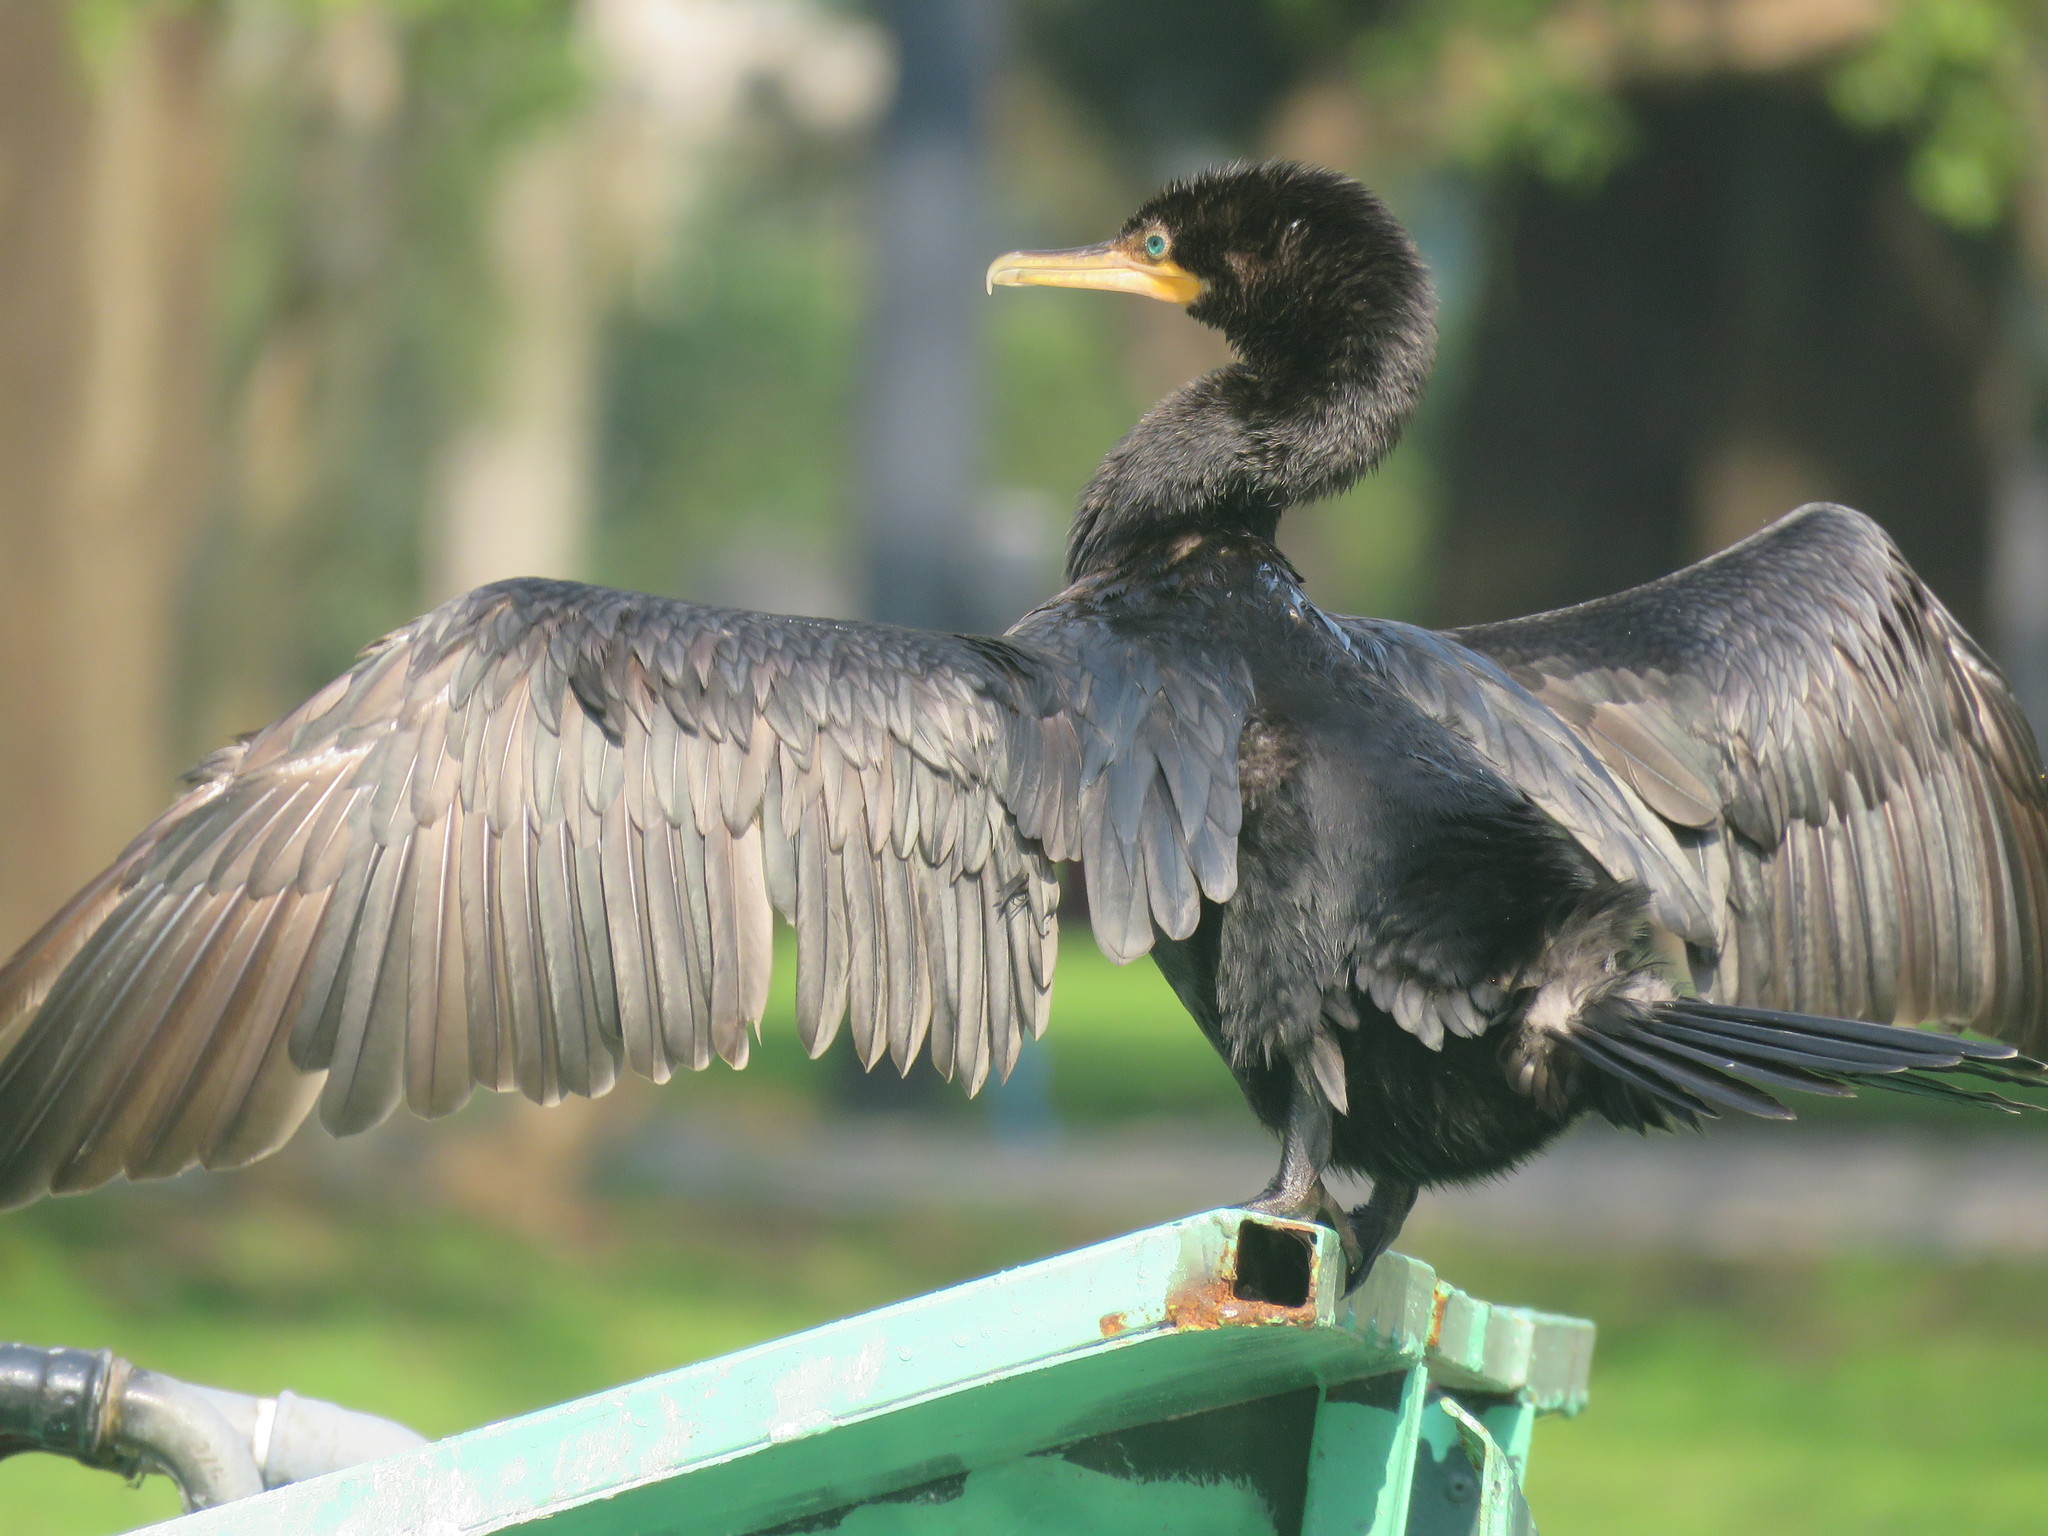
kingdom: Animalia
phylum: Chordata
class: Aves
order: Suliformes
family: Phalacrocoracidae
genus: Phalacrocorax
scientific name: Phalacrocorax brasilianus
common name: Neotropic cormorant
